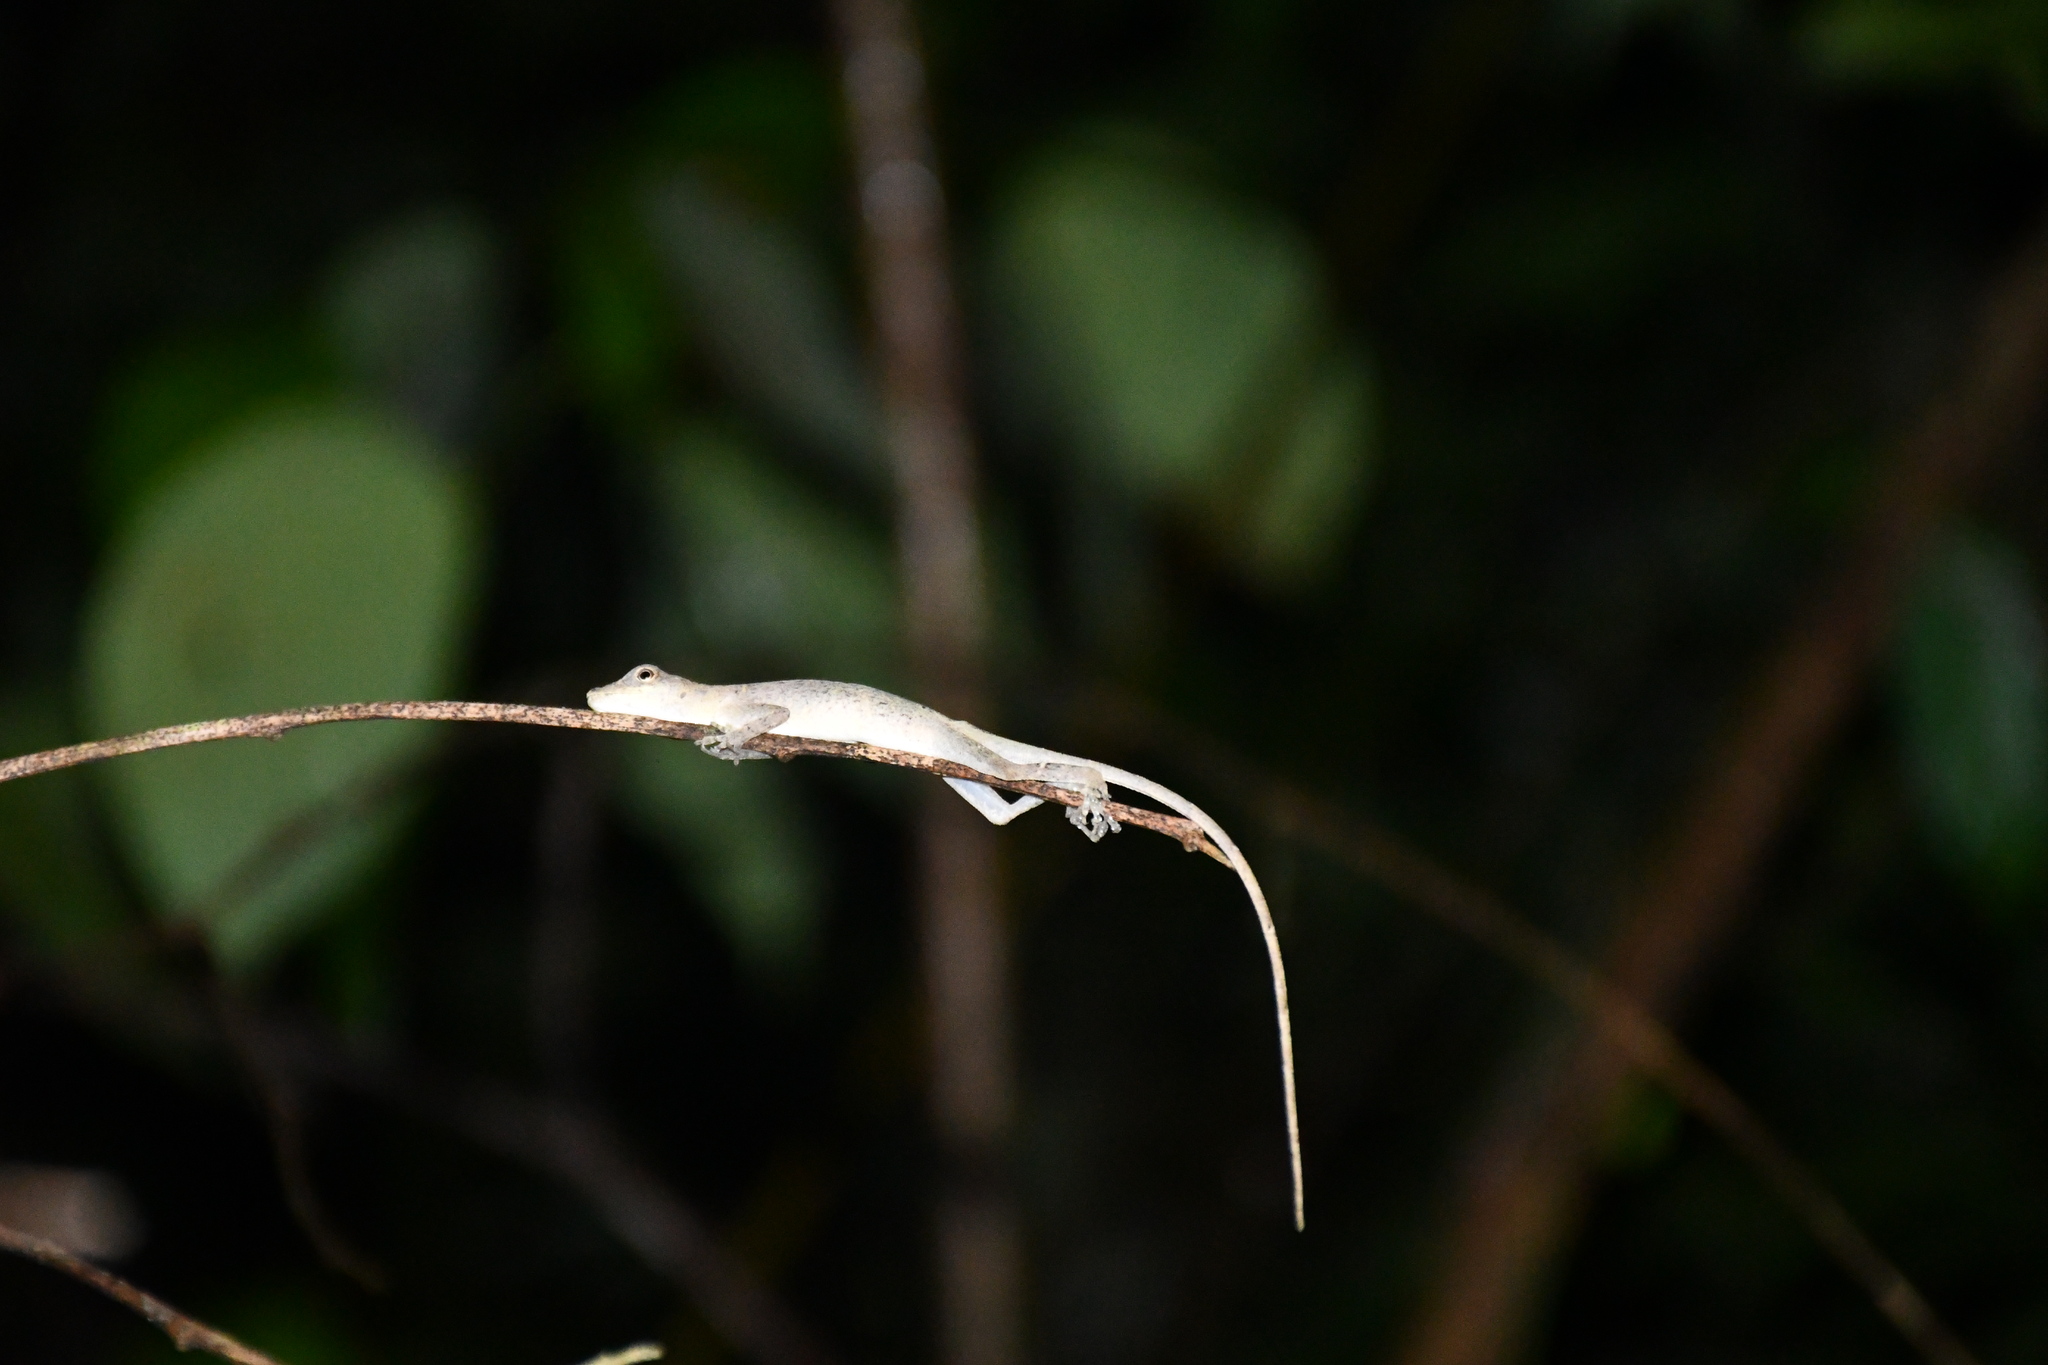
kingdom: Animalia
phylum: Chordata
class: Squamata
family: Dactyloidae
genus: Anolis
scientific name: Anolis fuscoauratus
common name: Brown-eared anole
